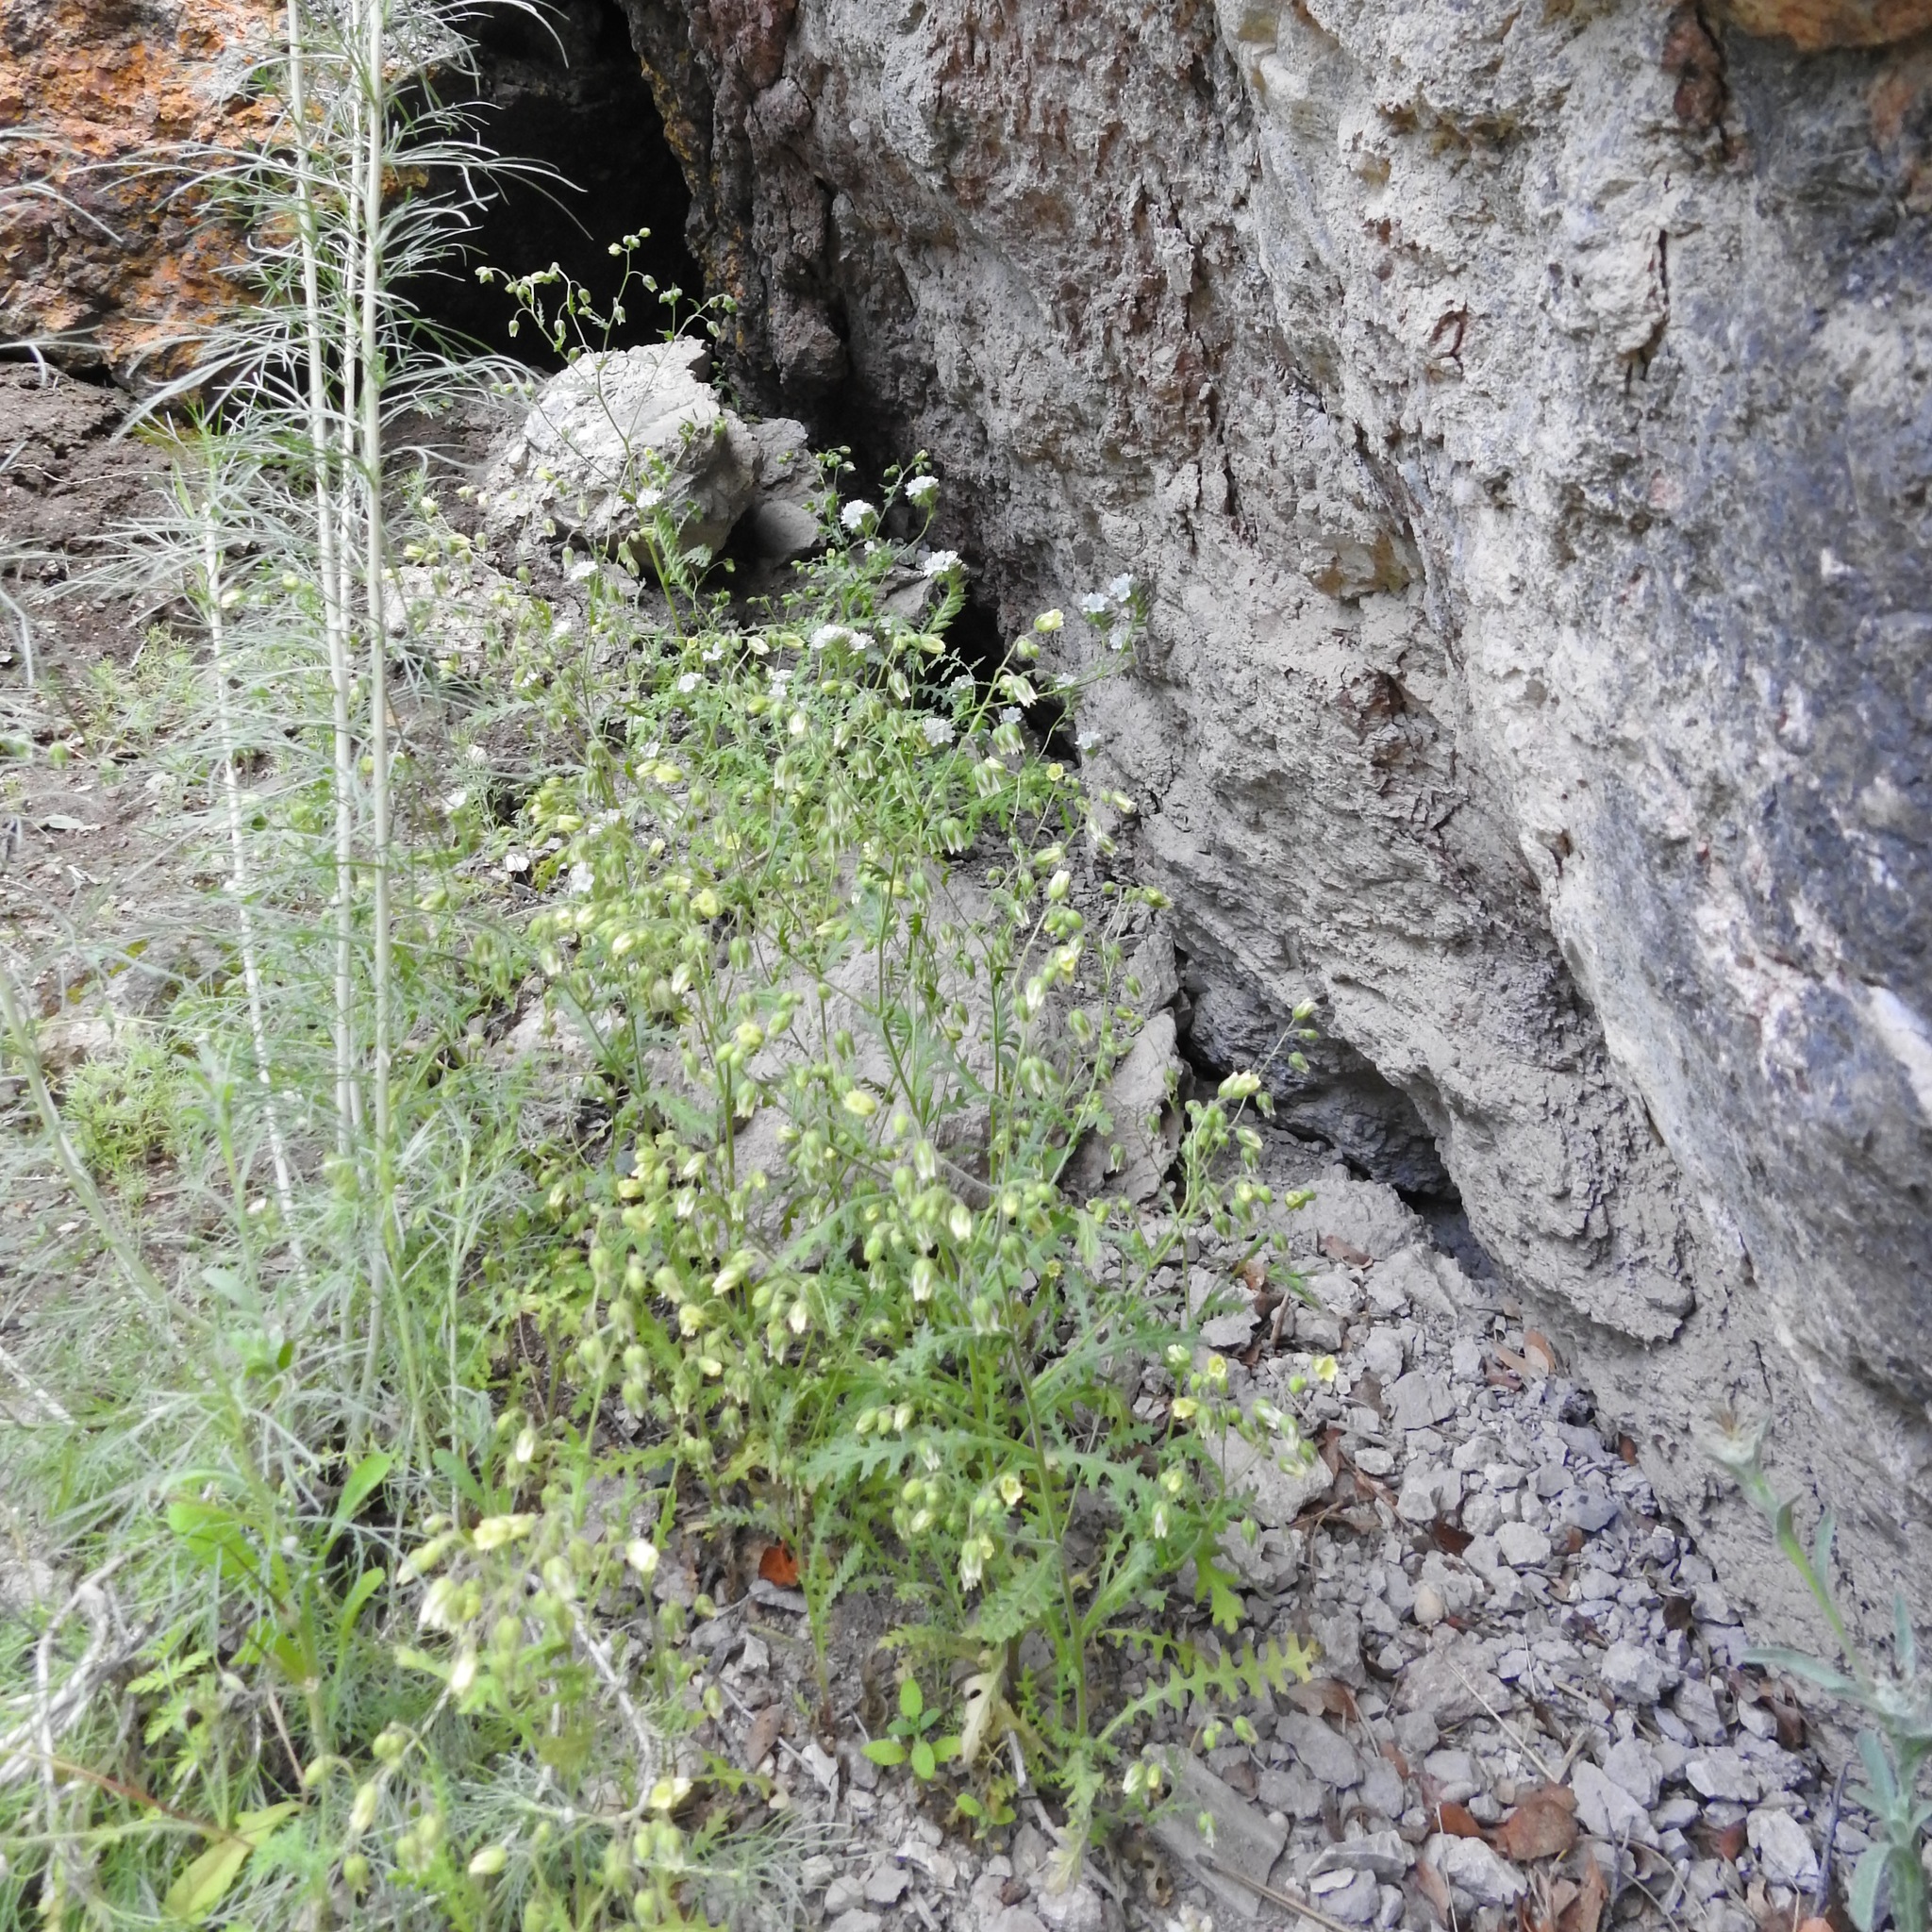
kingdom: Plantae
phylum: Tracheophyta
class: Magnoliopsida
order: Boraginales
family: Hydrophyllaceae
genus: Emmenanthe
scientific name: Emmenanthe penduliflora
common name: Whispering-bells
